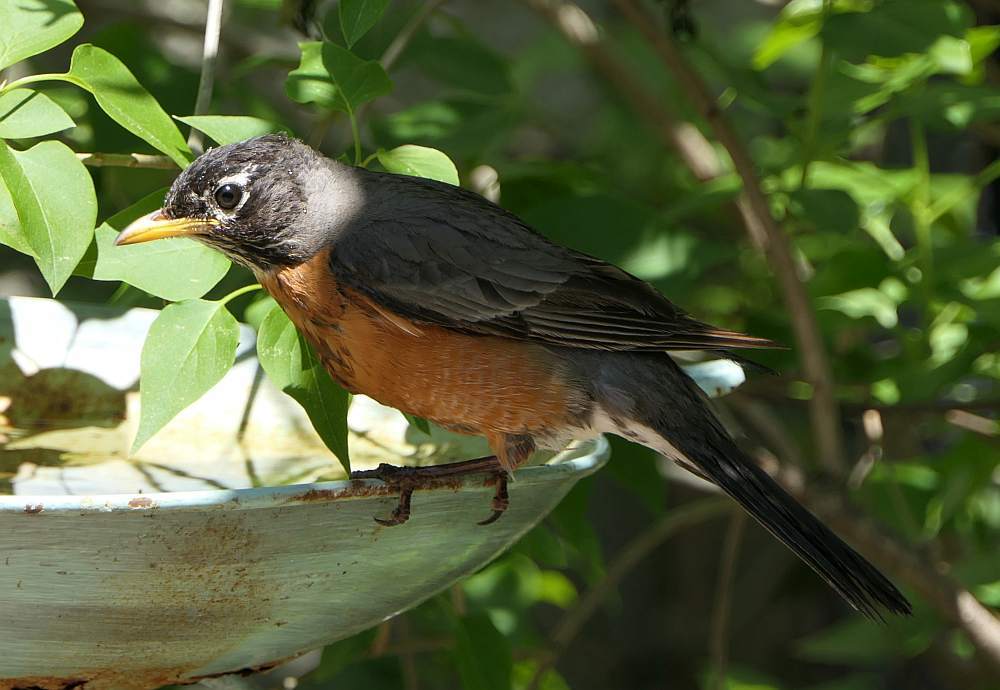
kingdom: Animalia
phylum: Chordata
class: Aves
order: Passeriformes
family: Turdidae
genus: Turdus
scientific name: Turdus migratorius
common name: American robin
